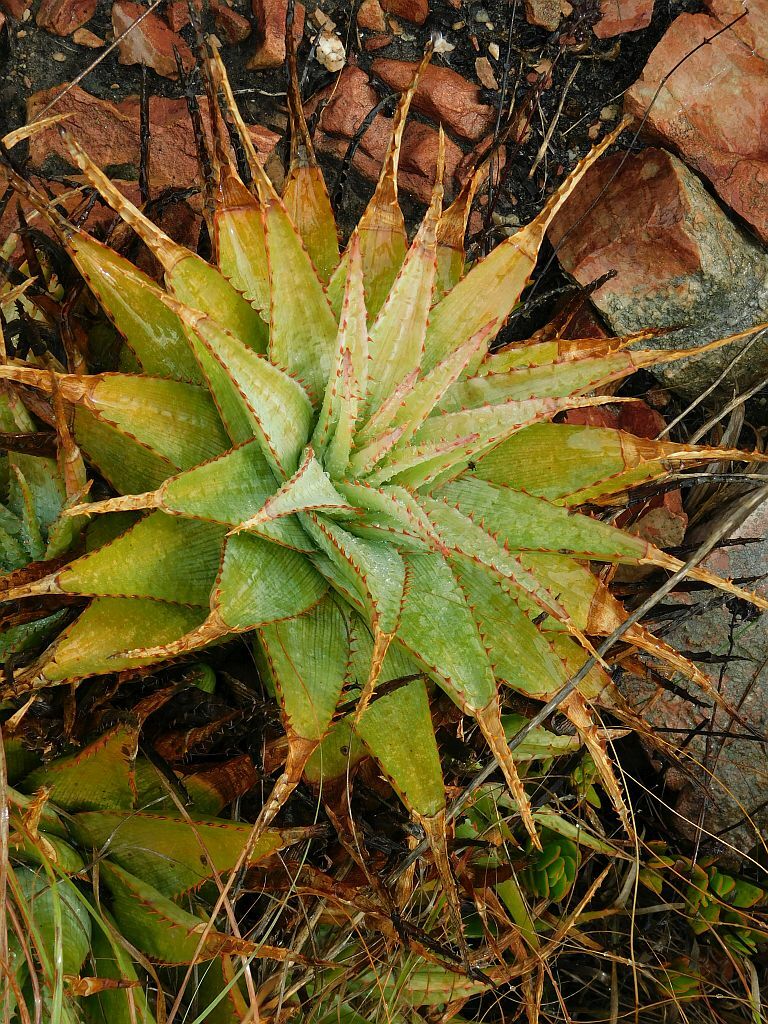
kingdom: Plantae
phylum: Tracheophyta
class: Liliopsida
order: Asparagales
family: Asphodelaceae
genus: Aloe
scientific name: Aloe glauca
